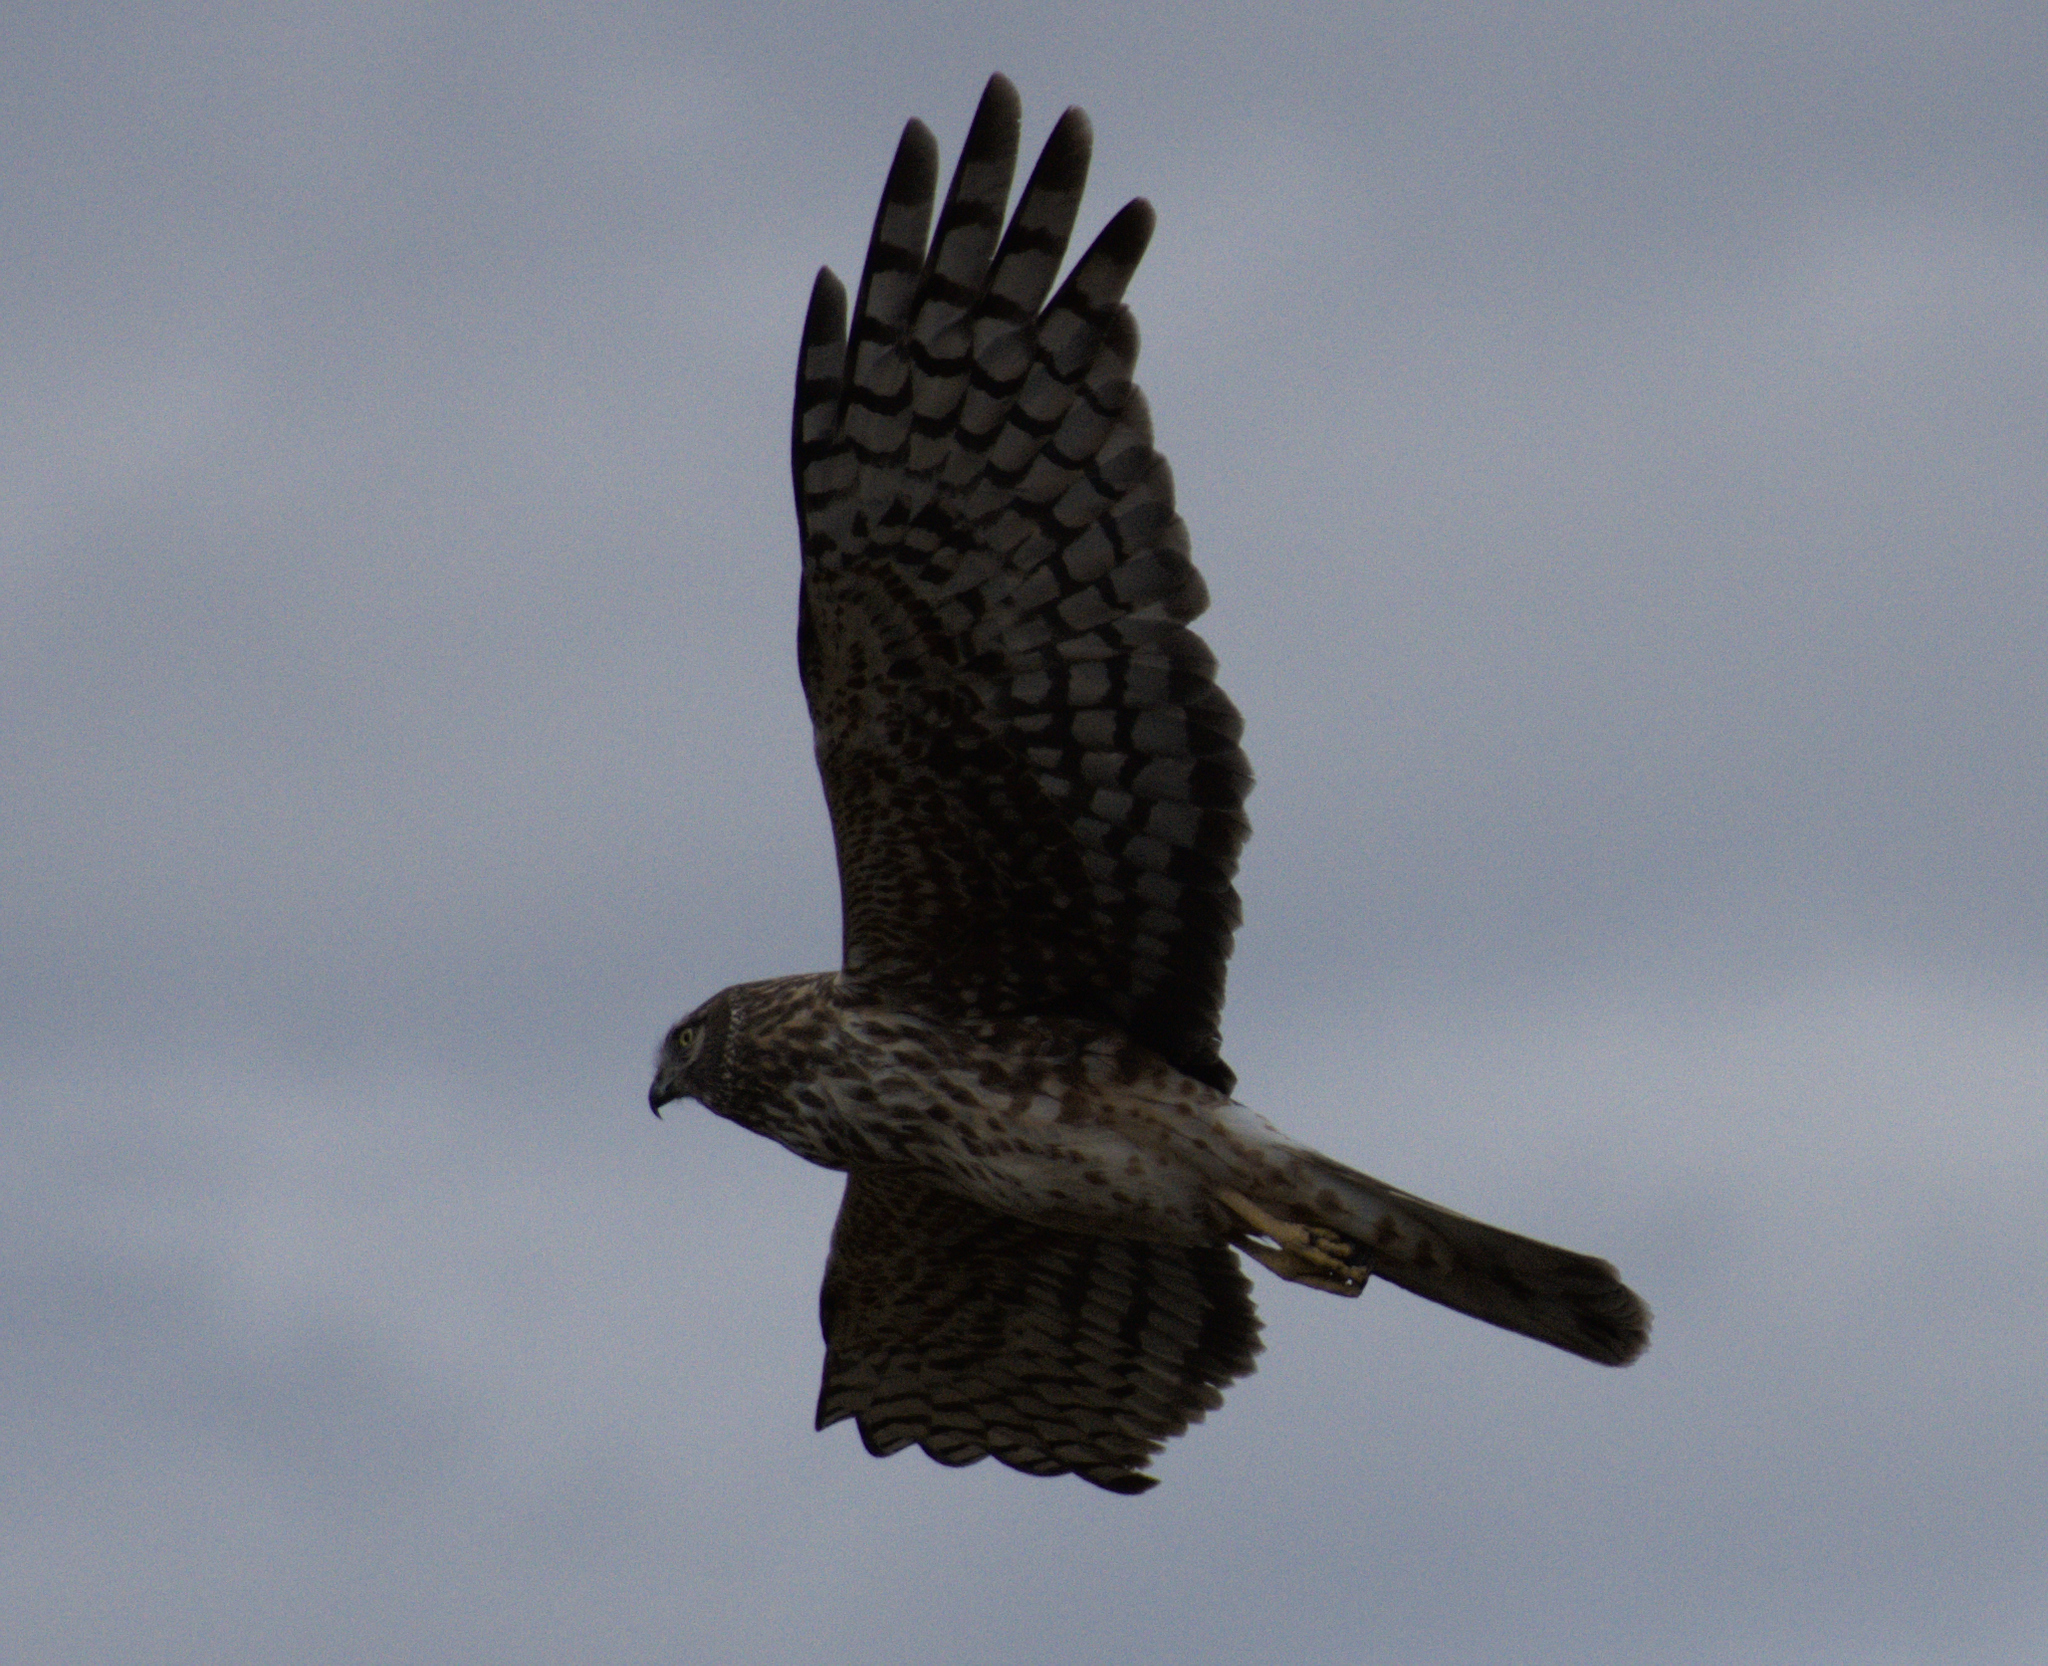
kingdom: Animalia
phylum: Chordata
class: Aves
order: Accipitriformes
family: Accipitridae
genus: Circus
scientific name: Circus cyaneus
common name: Hen harrier
